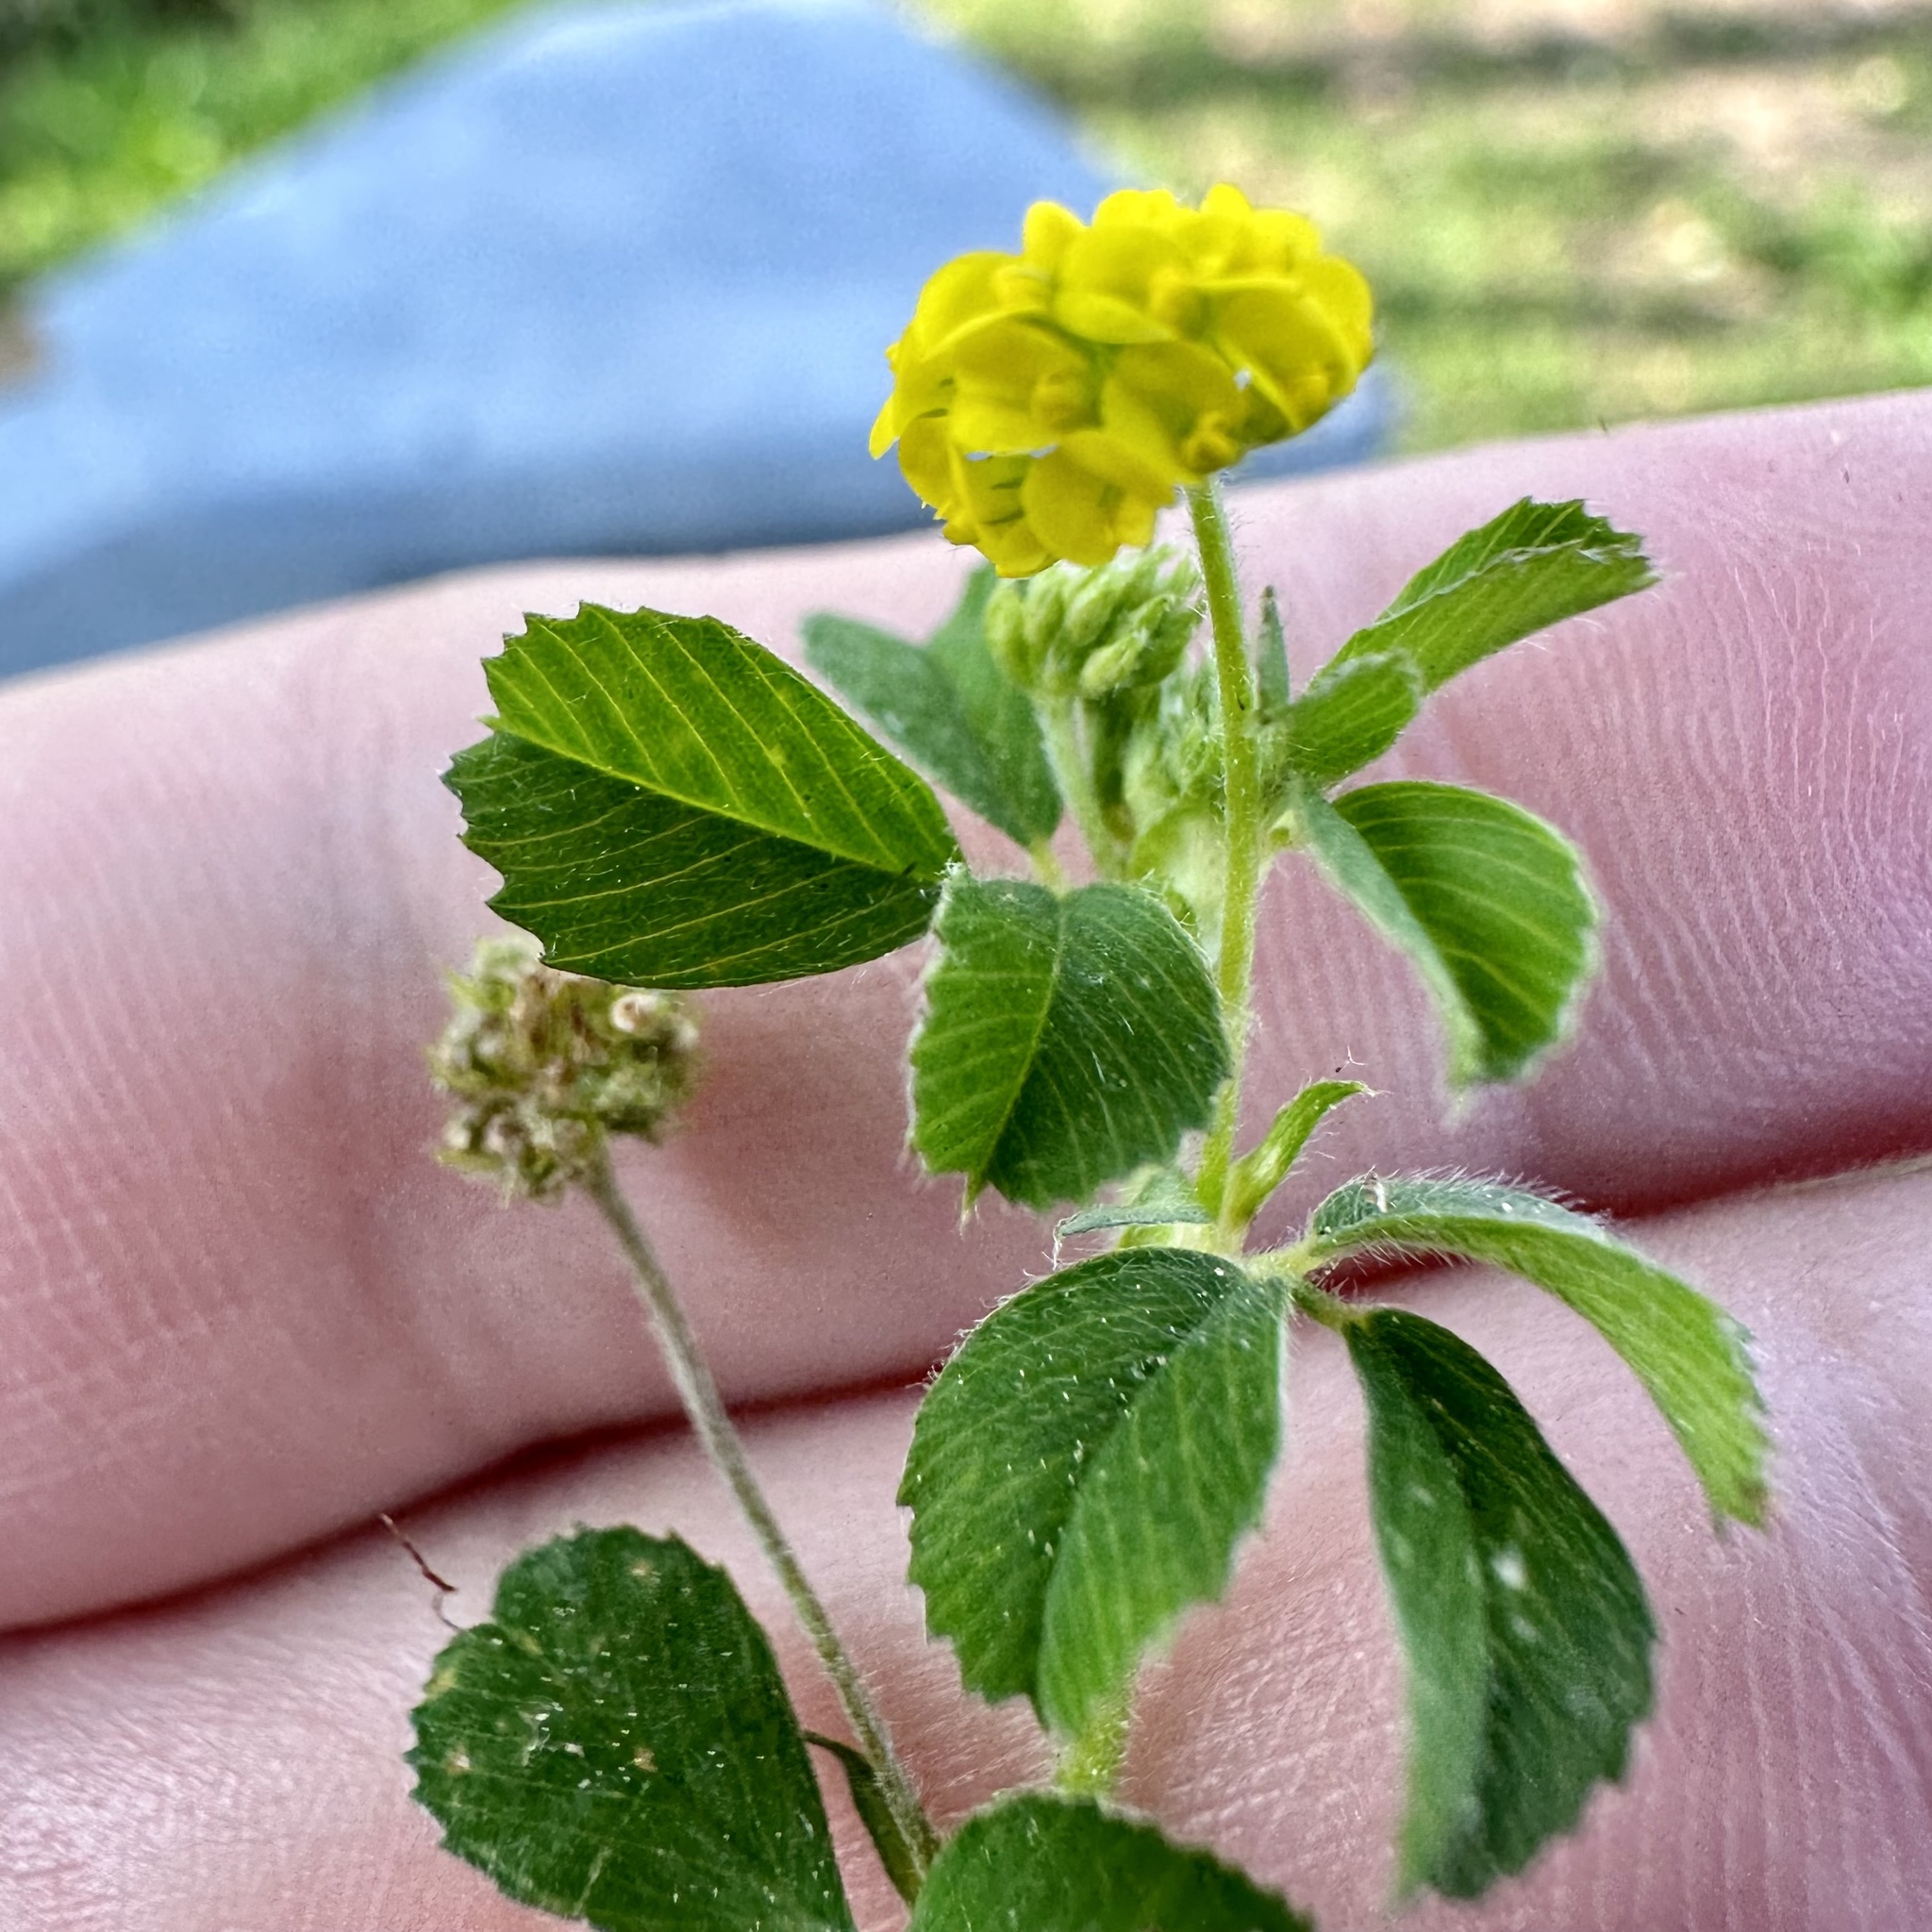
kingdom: Plantae
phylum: Tracheophyta
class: Magnoliopsida
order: Fabales
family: Fabaceae
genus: Medicago
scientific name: Medicago lupulina
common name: Black medick
